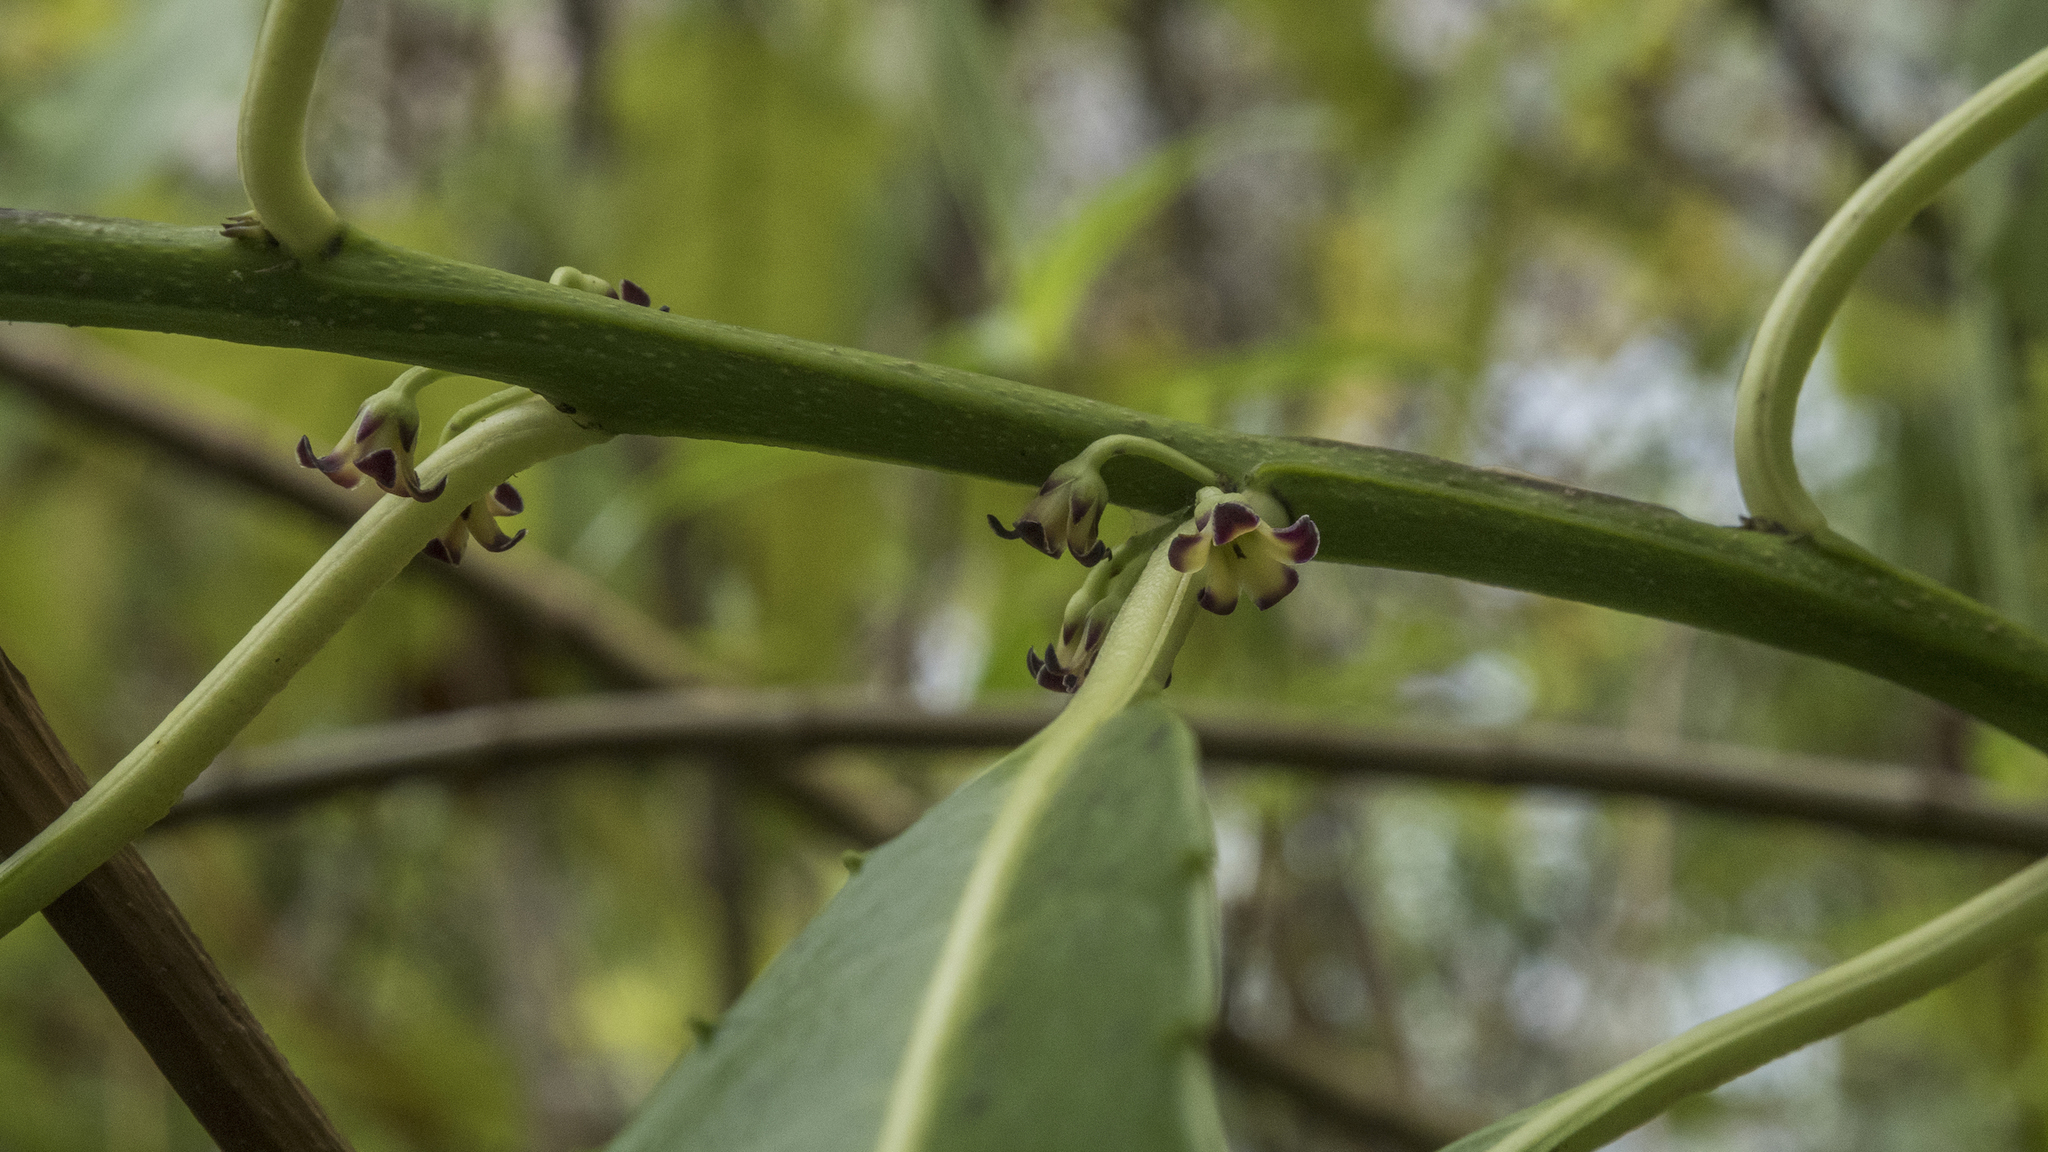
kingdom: Plantae
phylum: Tracheophyta
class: Magnoliopsida
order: Malpighiales
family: Violaceae
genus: Melicytus
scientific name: Melicytus lanceolatus
